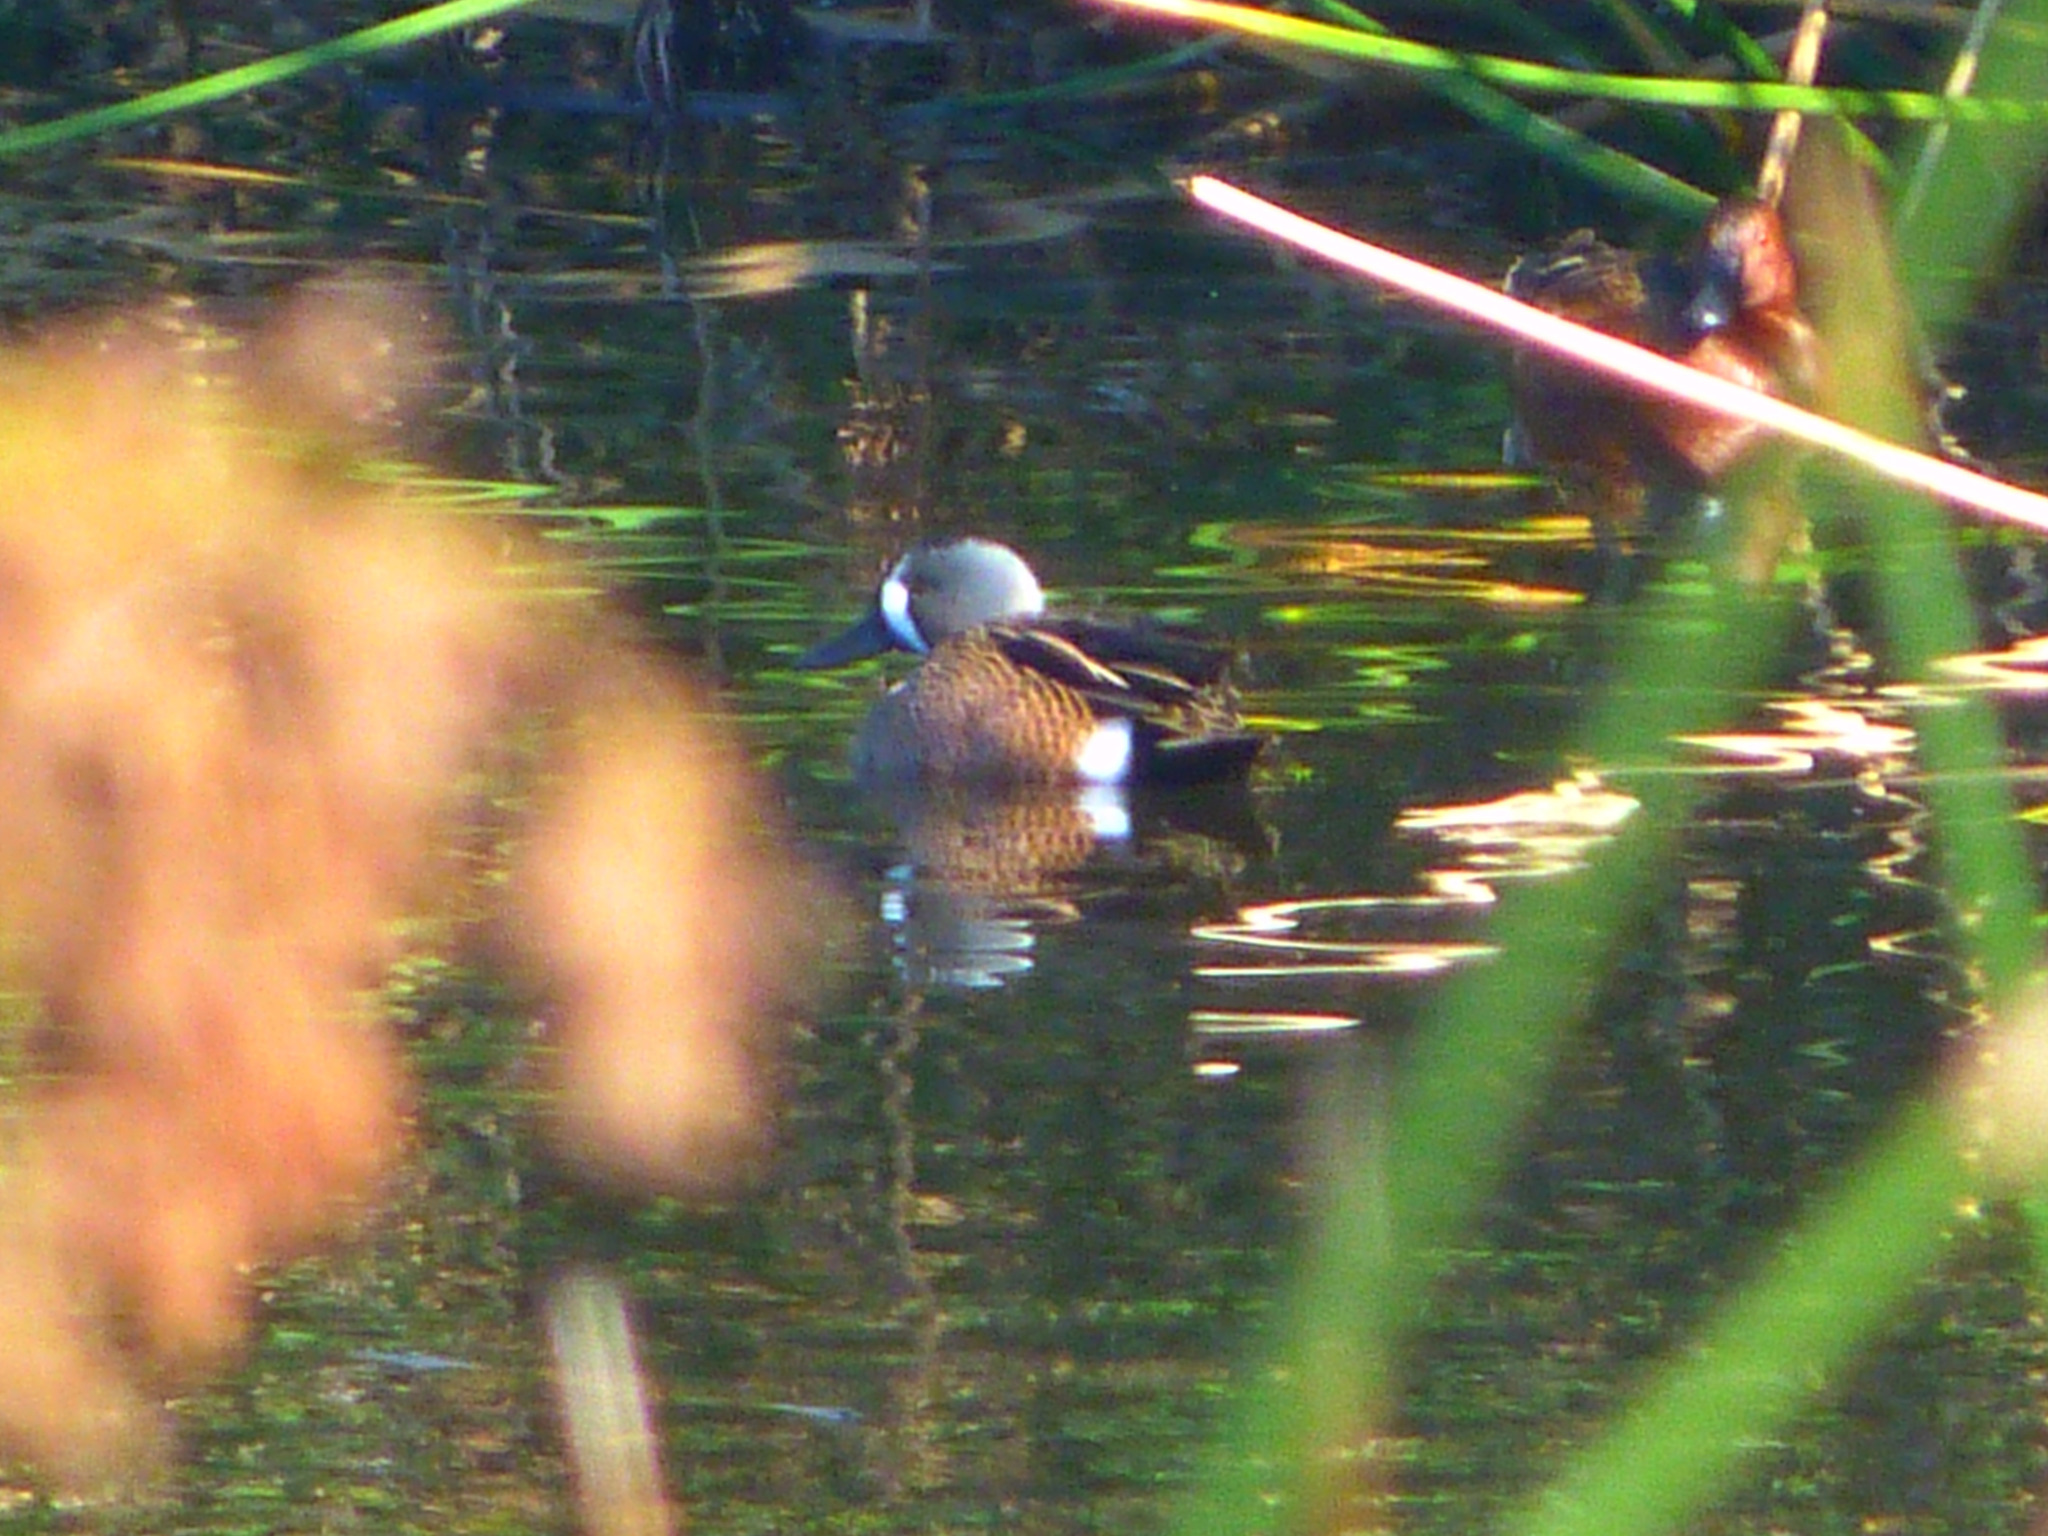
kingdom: Animalia
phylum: Chordata
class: Aves
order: Anseriformes
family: Anatidae
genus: Spatula
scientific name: Spatula discors
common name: Blue-winged teal
